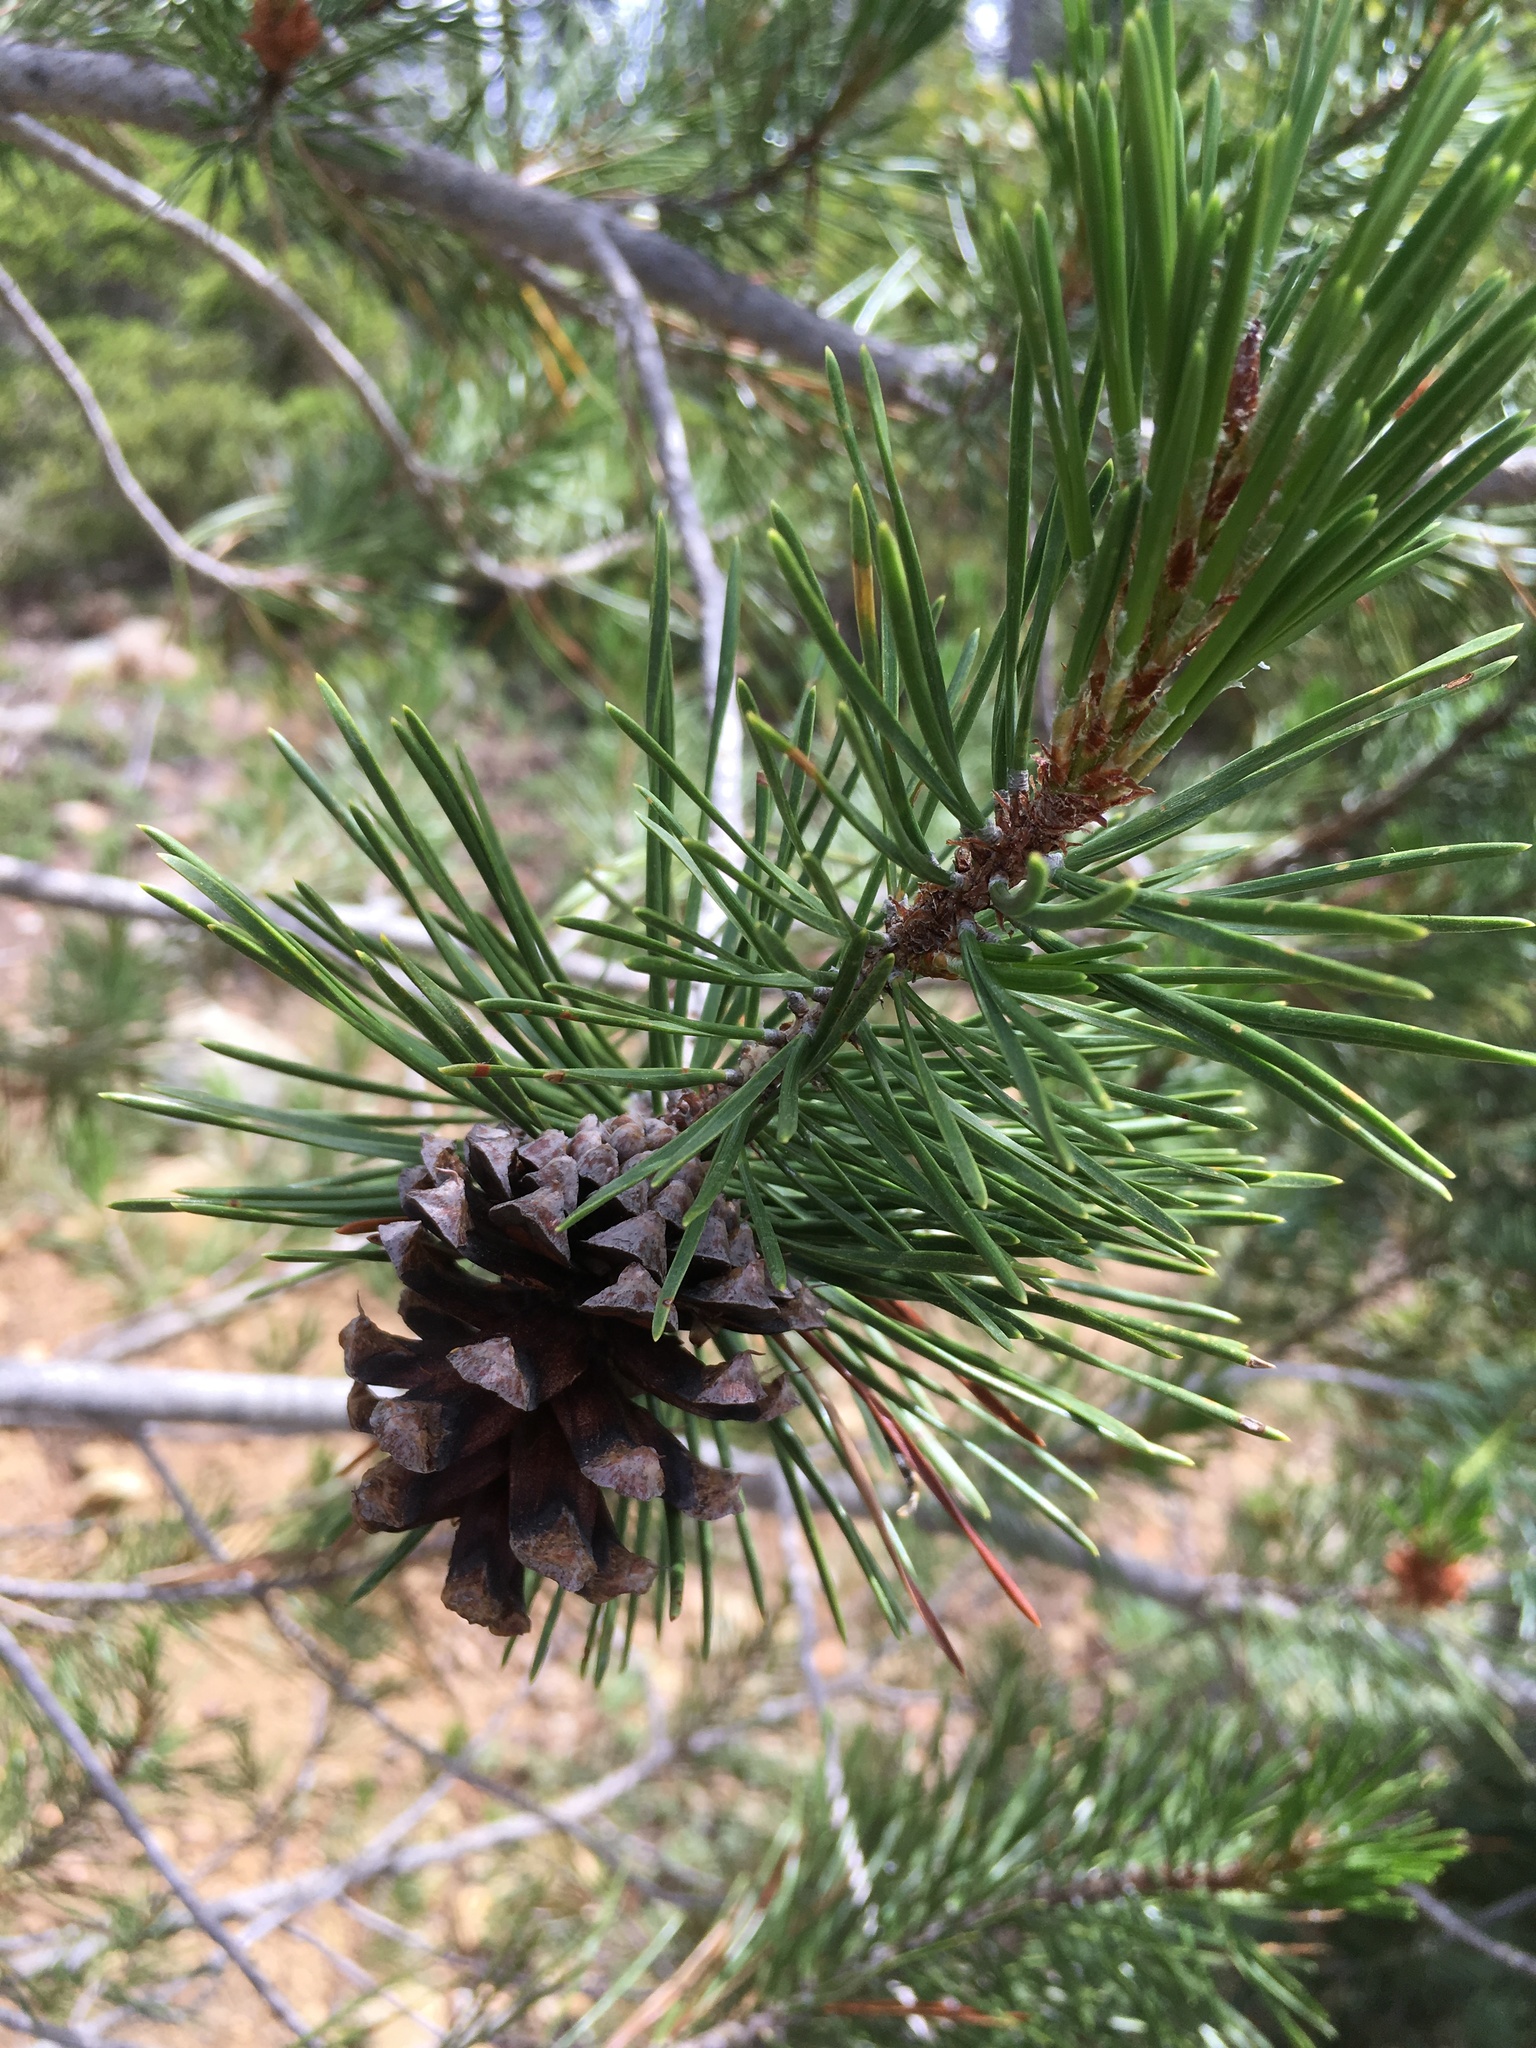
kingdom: Plantae
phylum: Tracheophyta
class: Pinopsida
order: Pinales
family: Pinaceae
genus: Pinus
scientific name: Pinus contorta
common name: Lodgepole pine
